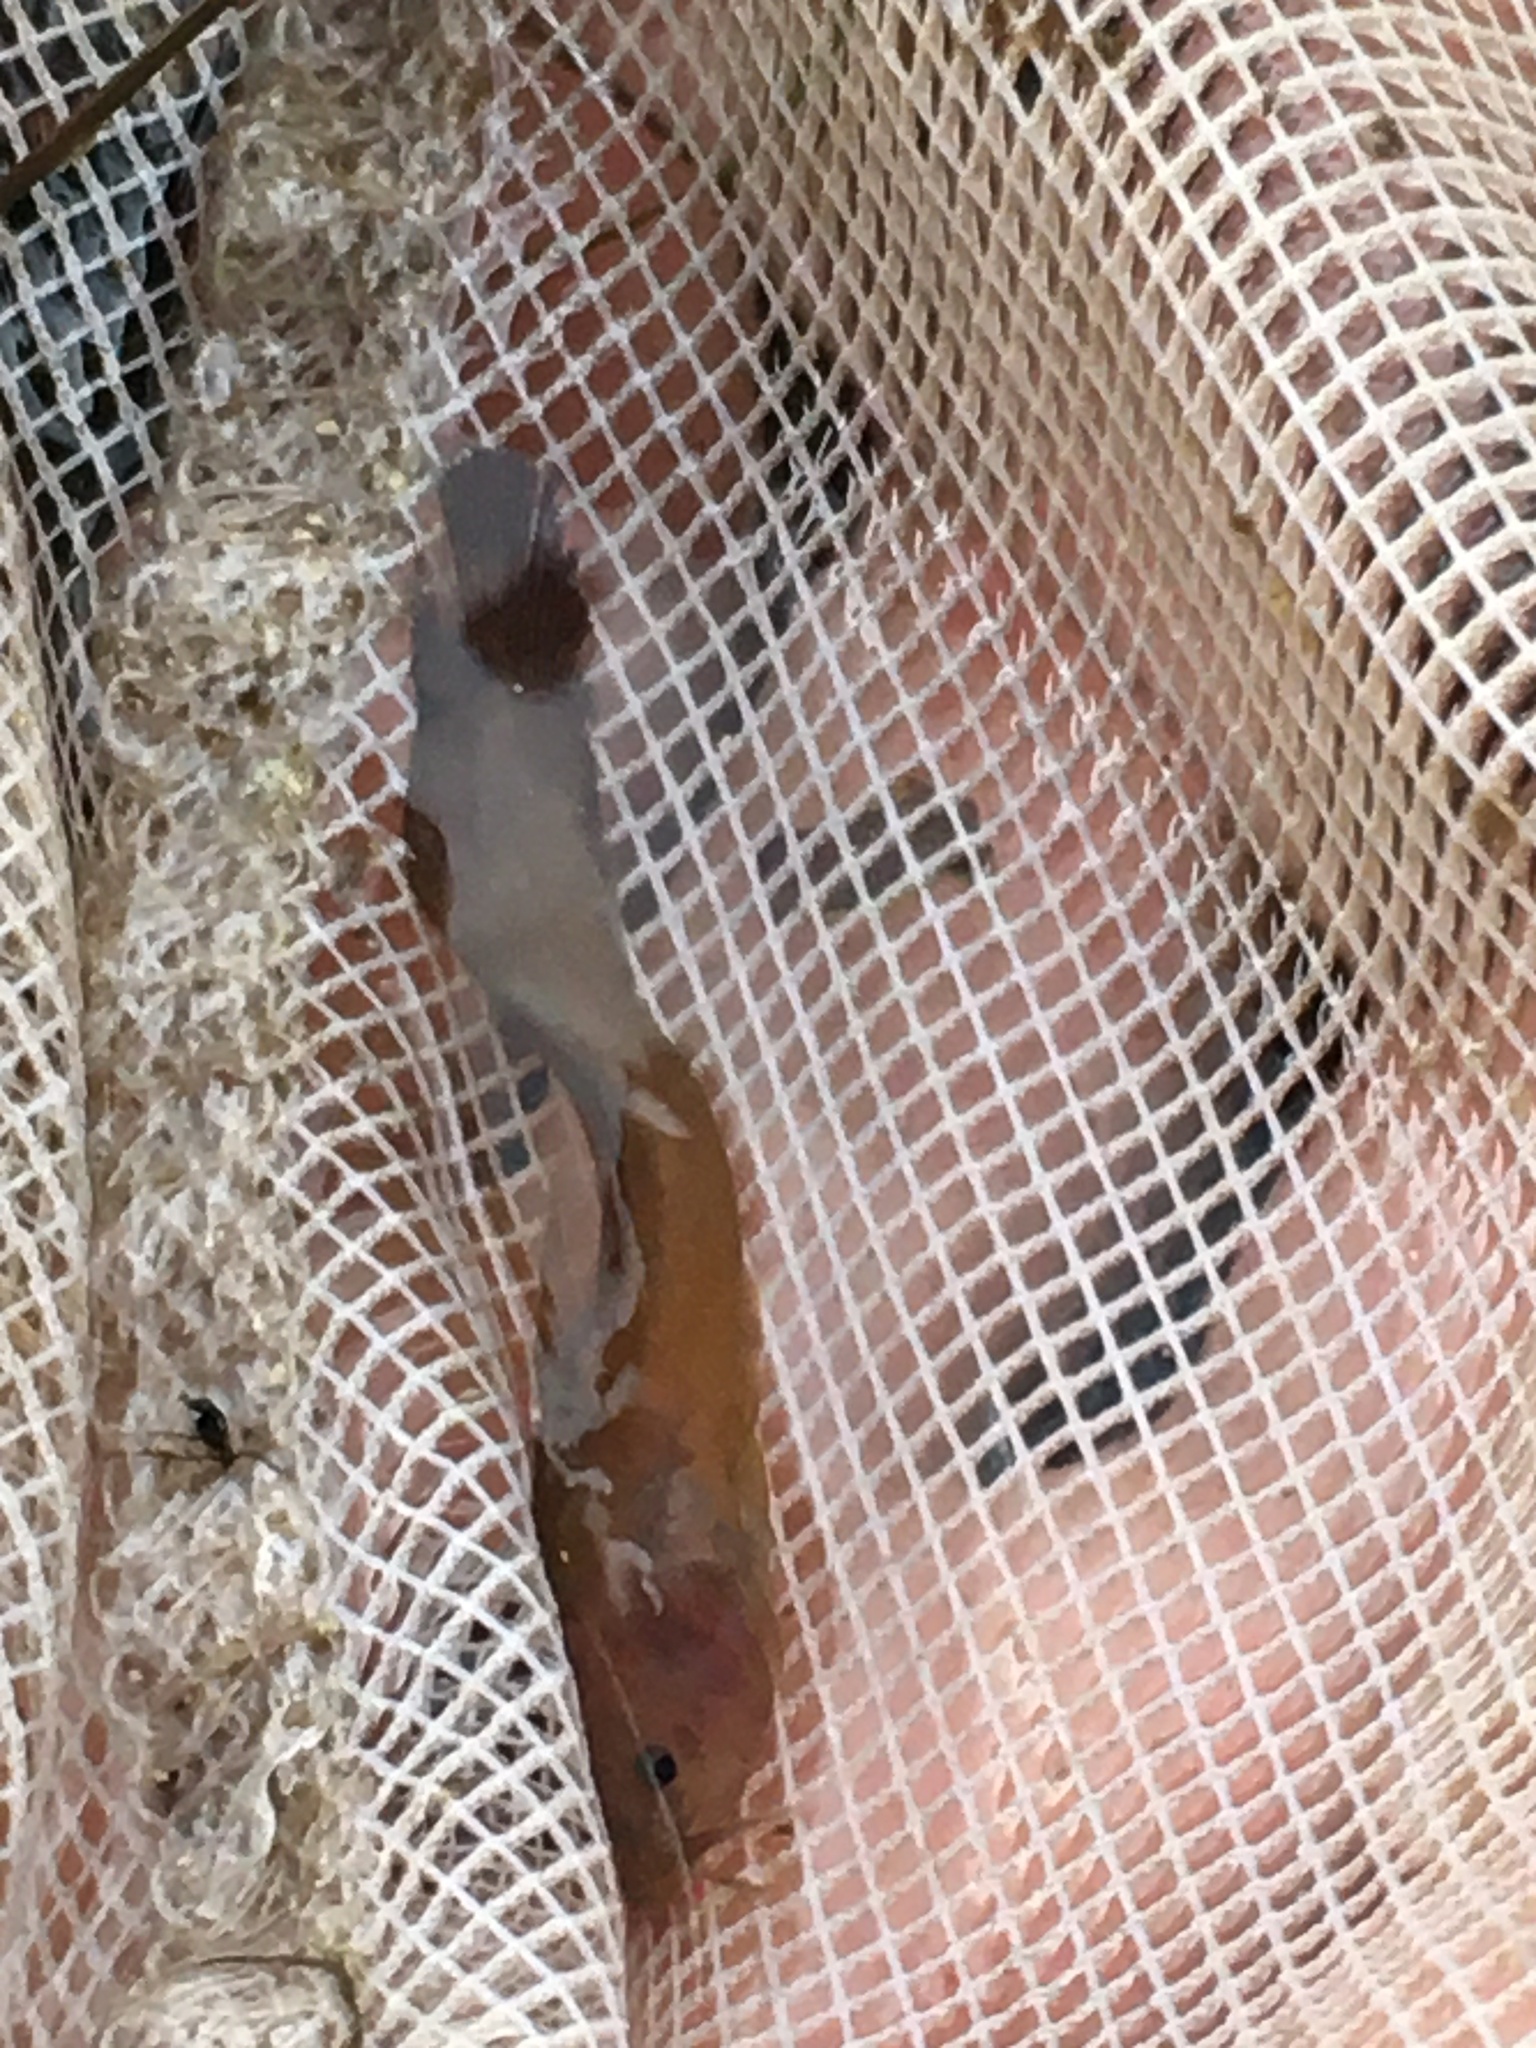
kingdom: Animalia
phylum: Chordata
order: Siluriformes
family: Ictaluridae
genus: Noturus
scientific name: Noturus funebris
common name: Black madtom
